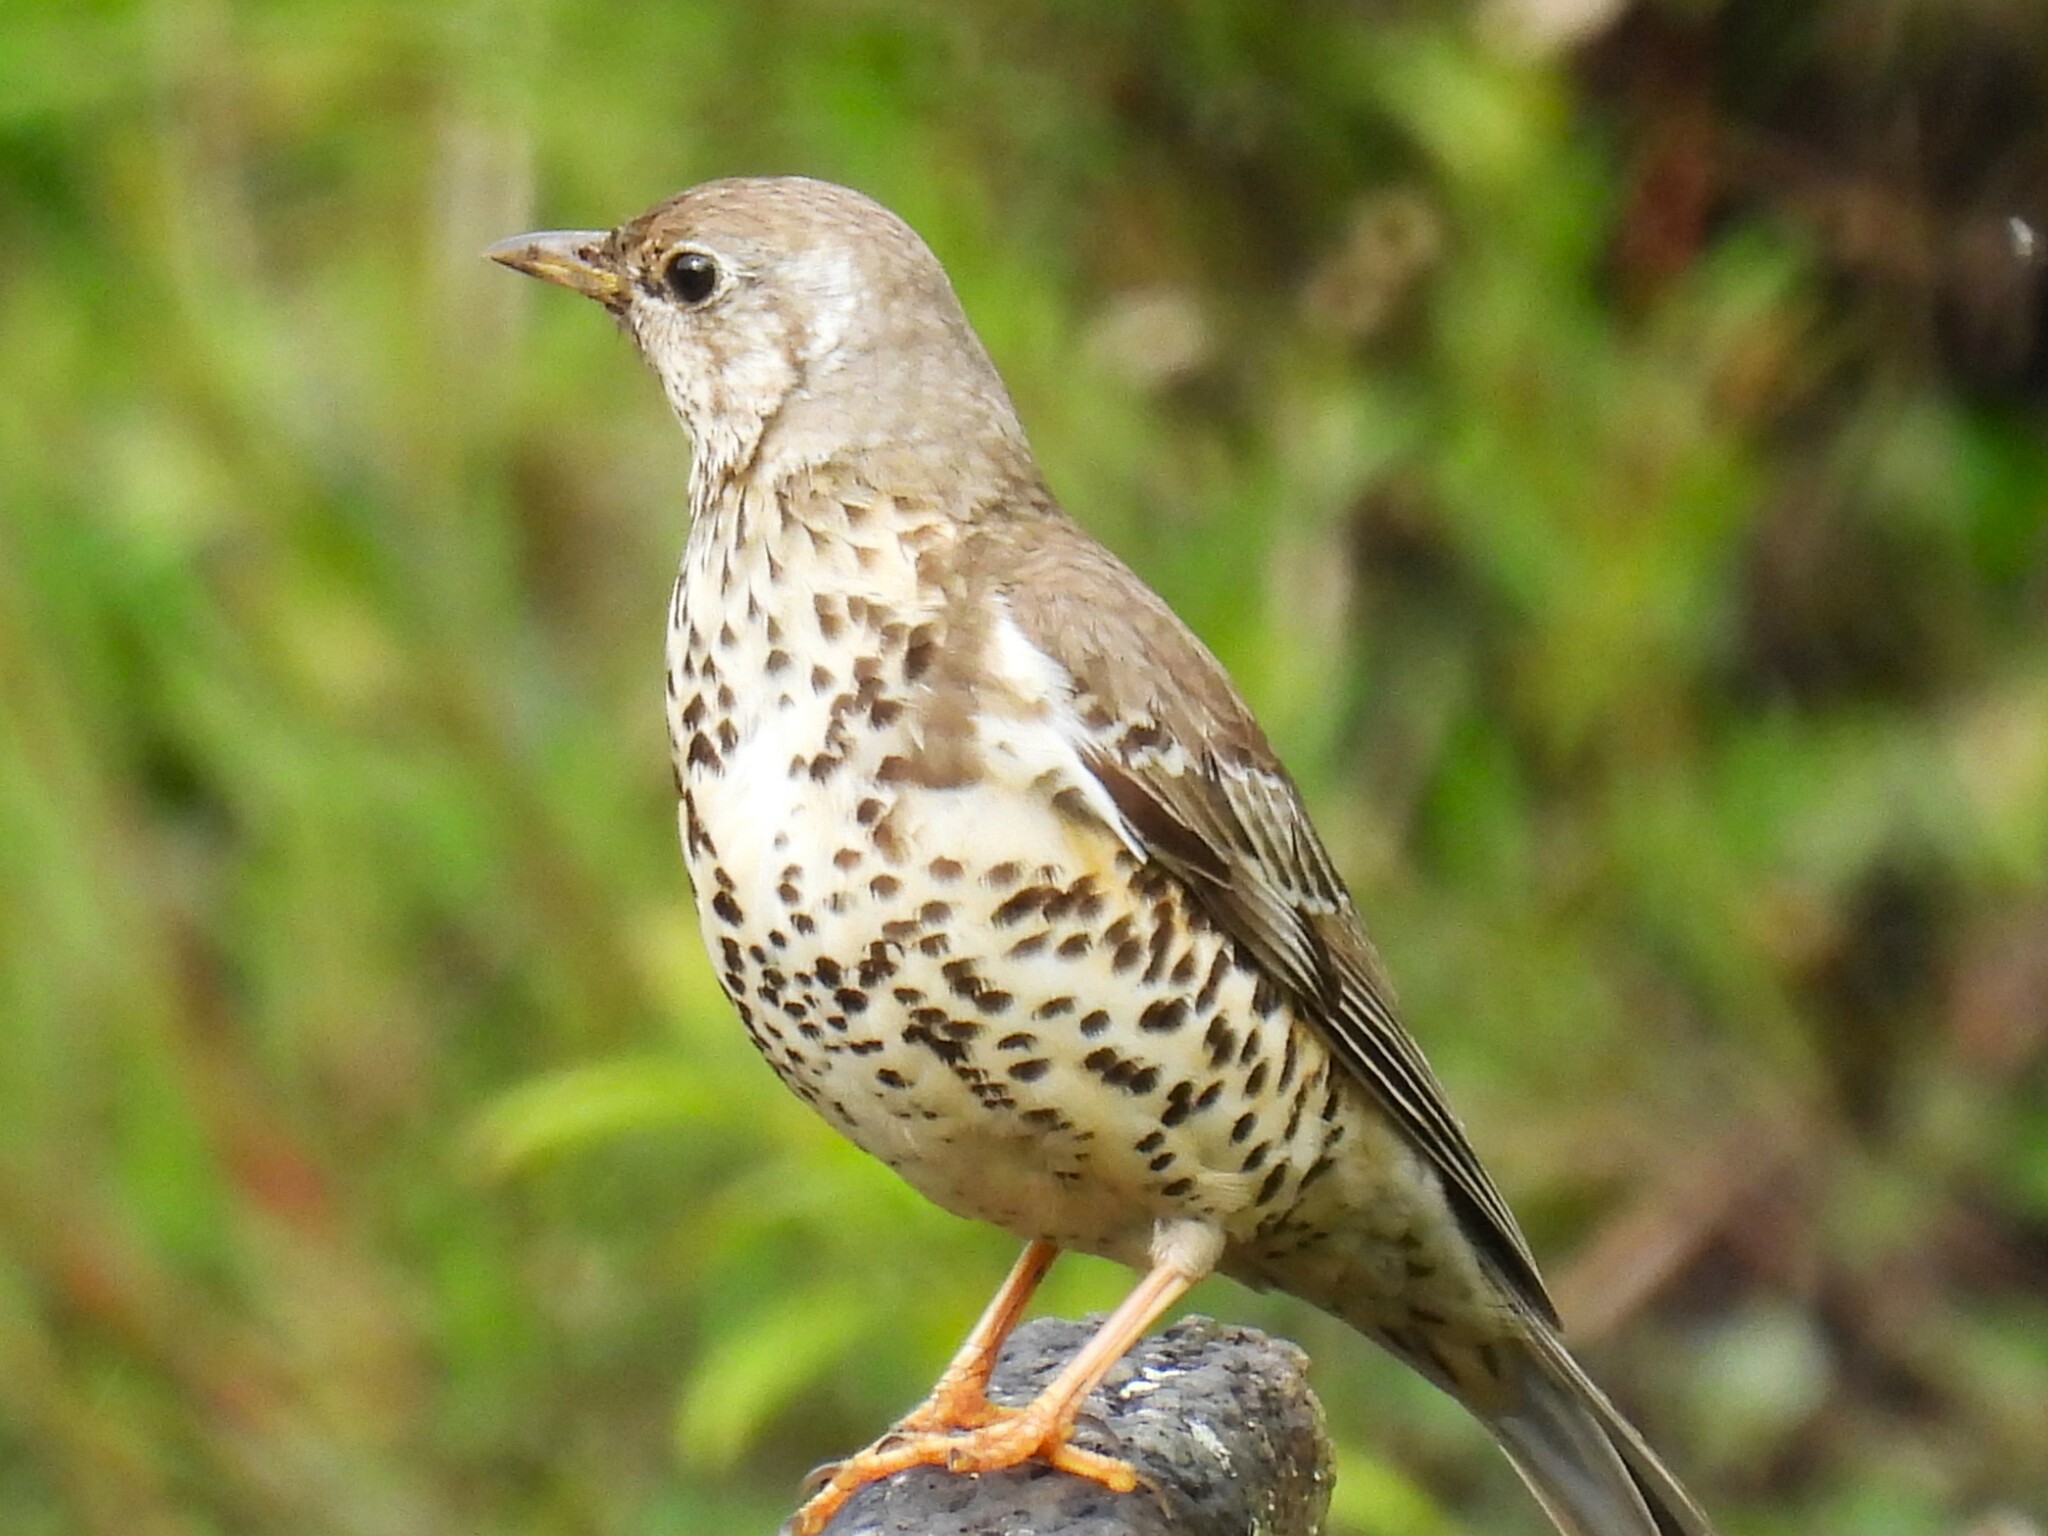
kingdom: Animalia
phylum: Chordata
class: Aves
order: Passeriformes
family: Turdidae
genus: Turdus
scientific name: Turdus viscivorus
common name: Mistle thrush
